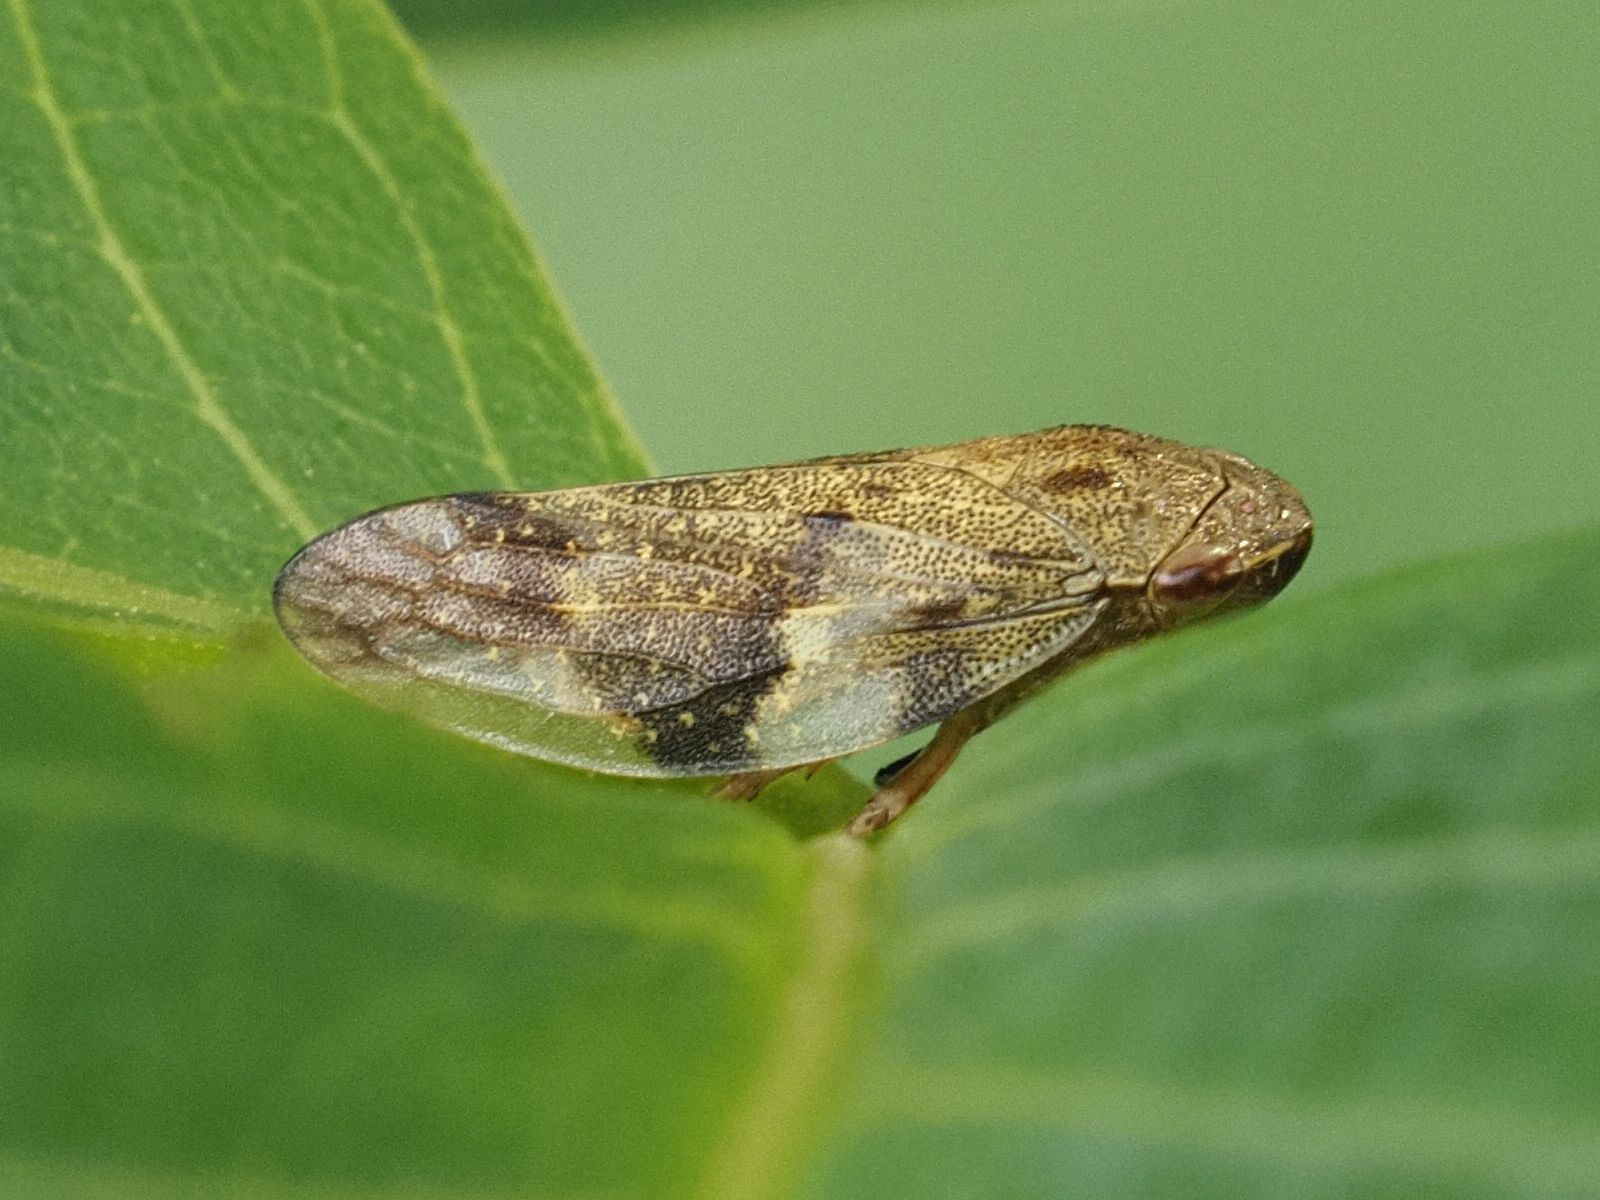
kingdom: Animalia
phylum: Arthropoda
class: Insecta
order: Hemiptera
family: Aphrophoridae
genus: Aphrophora
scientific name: Aphrophora alni
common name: European alder spittlebug
